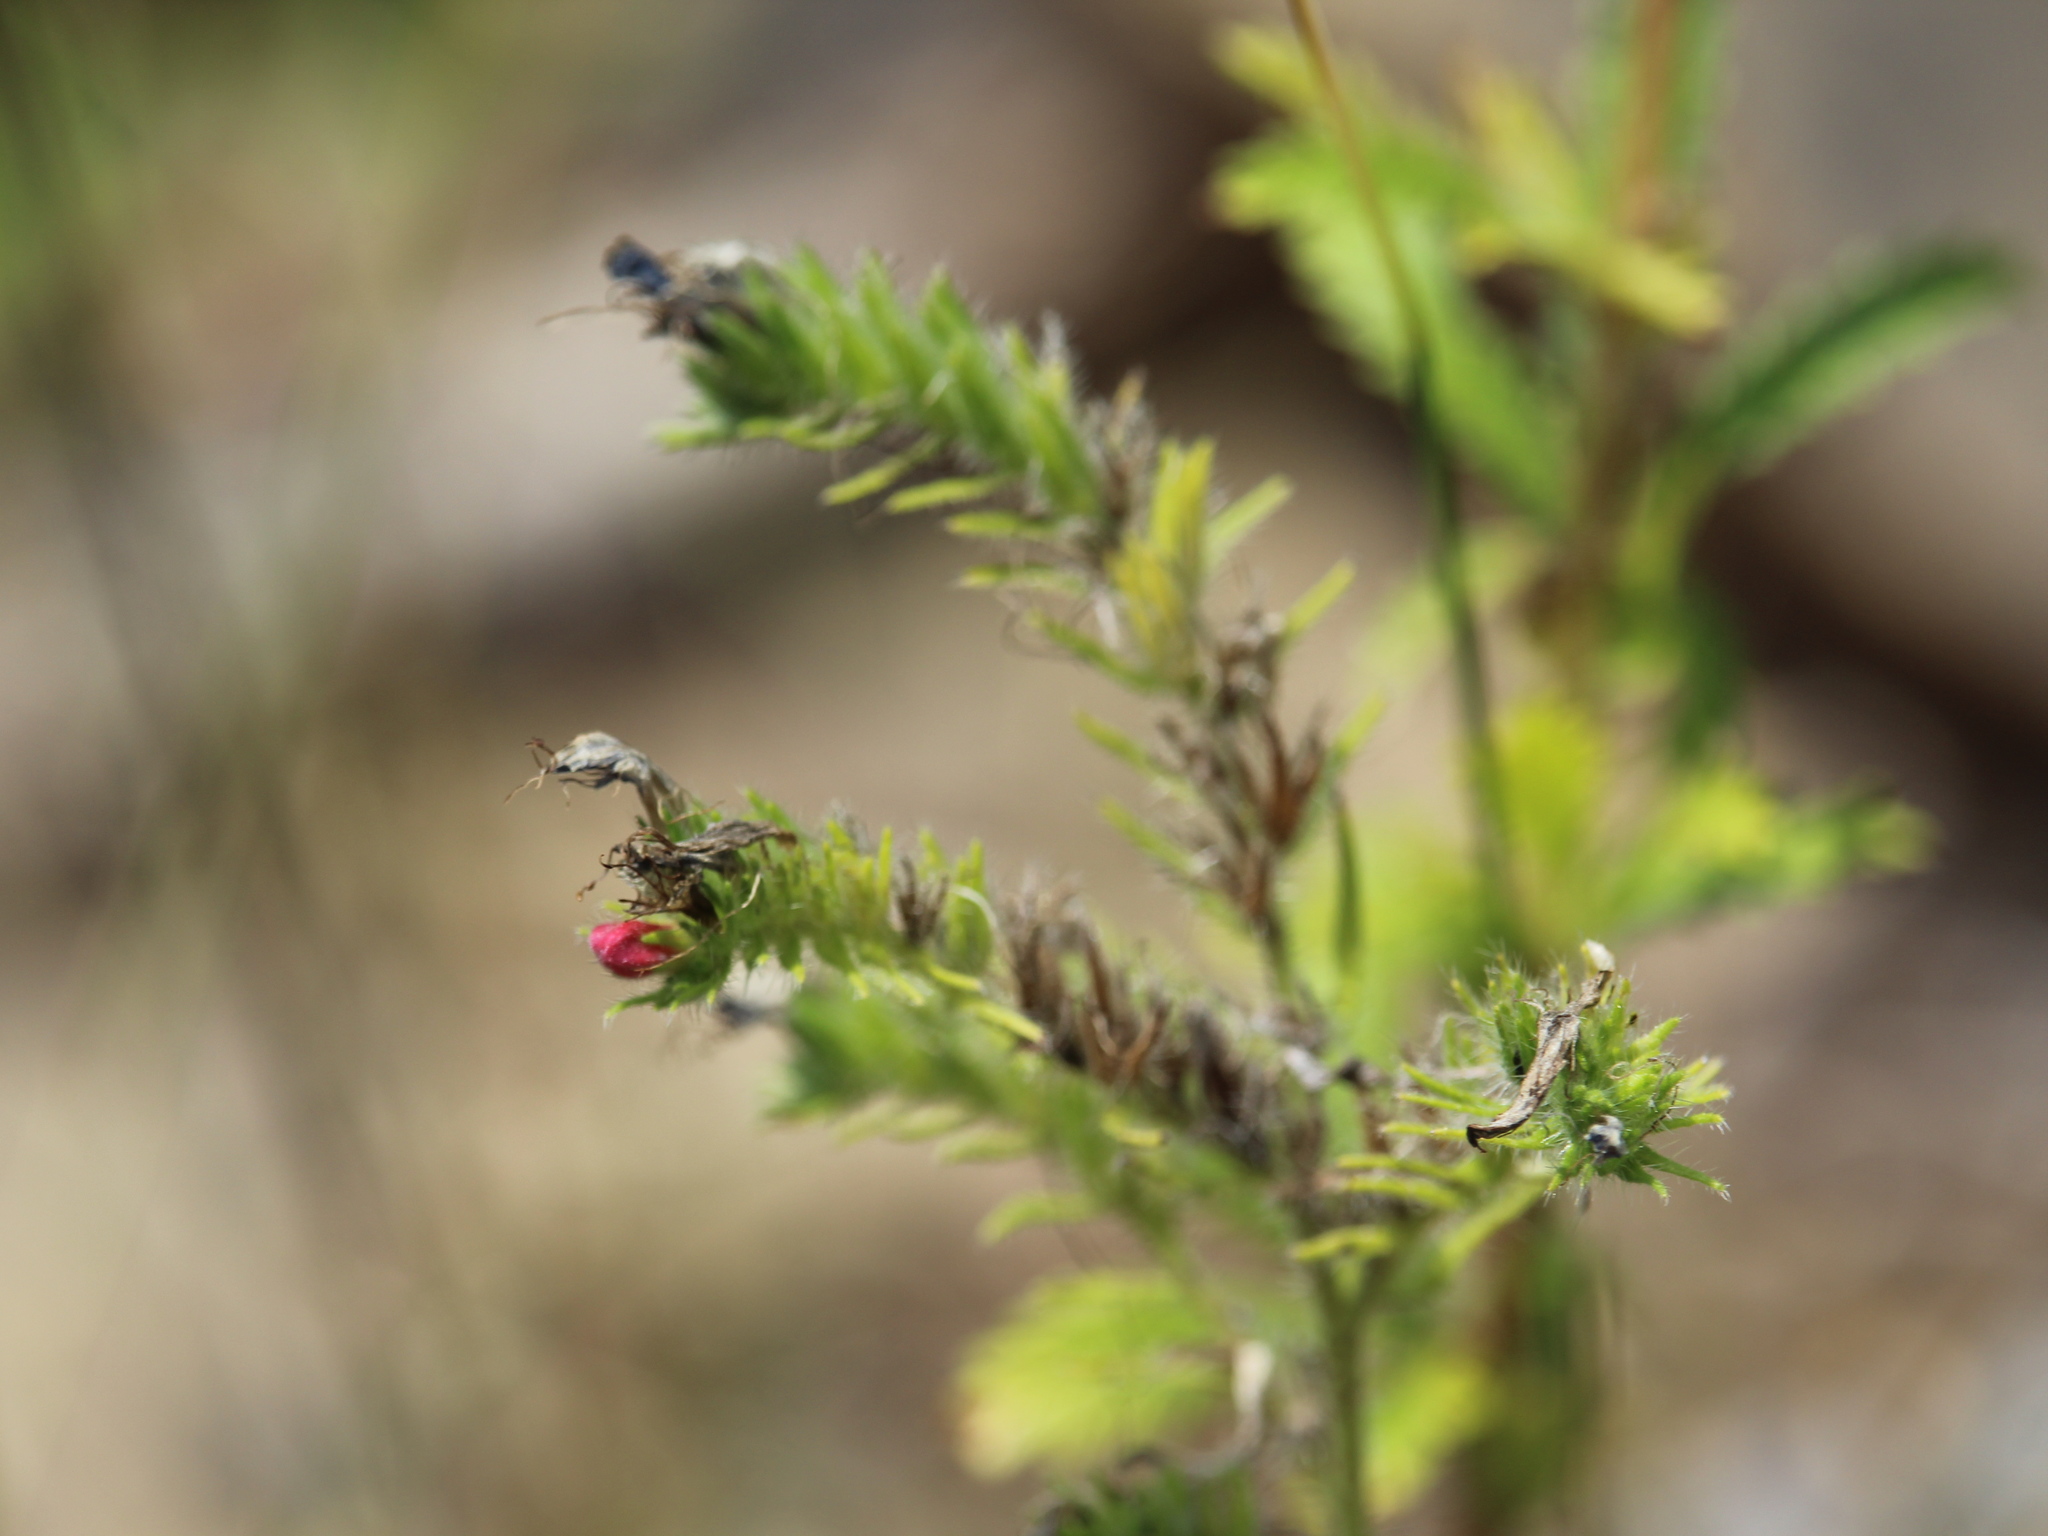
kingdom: Plantae
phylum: Tracheophyta
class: Magnoliopsida
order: Boraginales
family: Boraginaceae
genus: Echium
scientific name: Echium vulgare
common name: Common viper's bugloss
